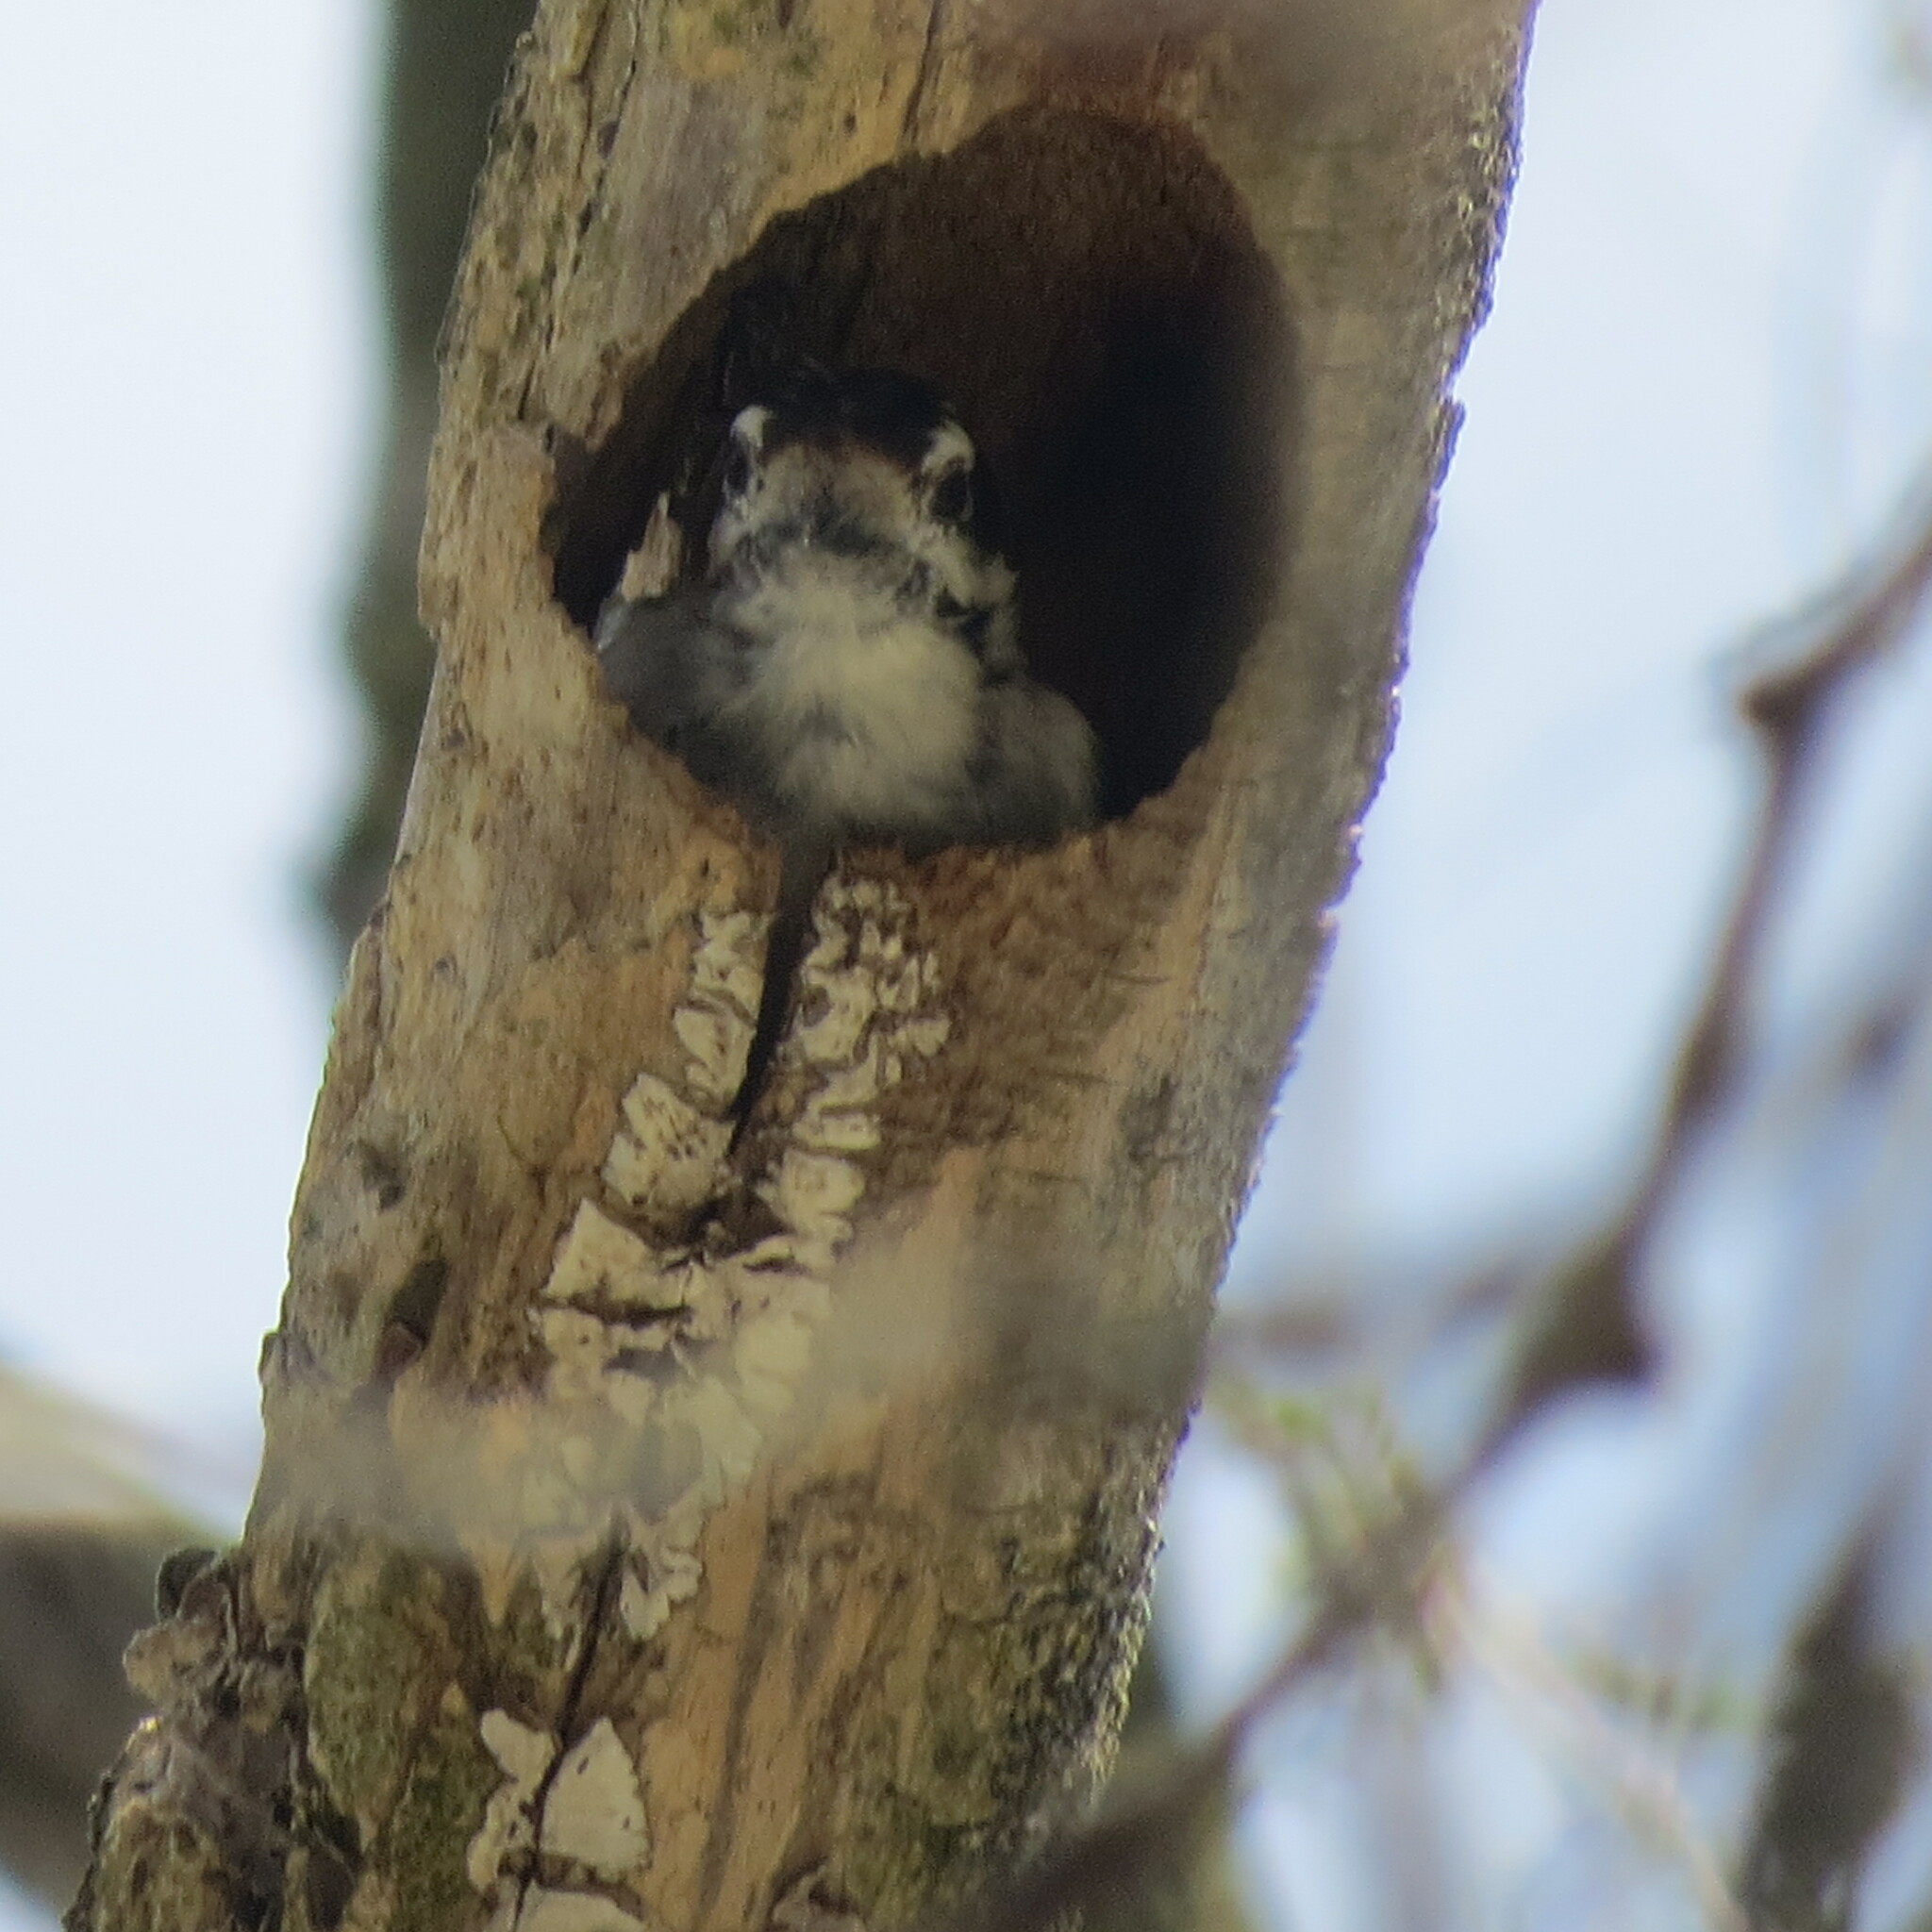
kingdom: Animalia
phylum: Chordata
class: Aves
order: Piciformes
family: Picidae
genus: Dryobates
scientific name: Dryobates pubescens
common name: Downy woodpecker
